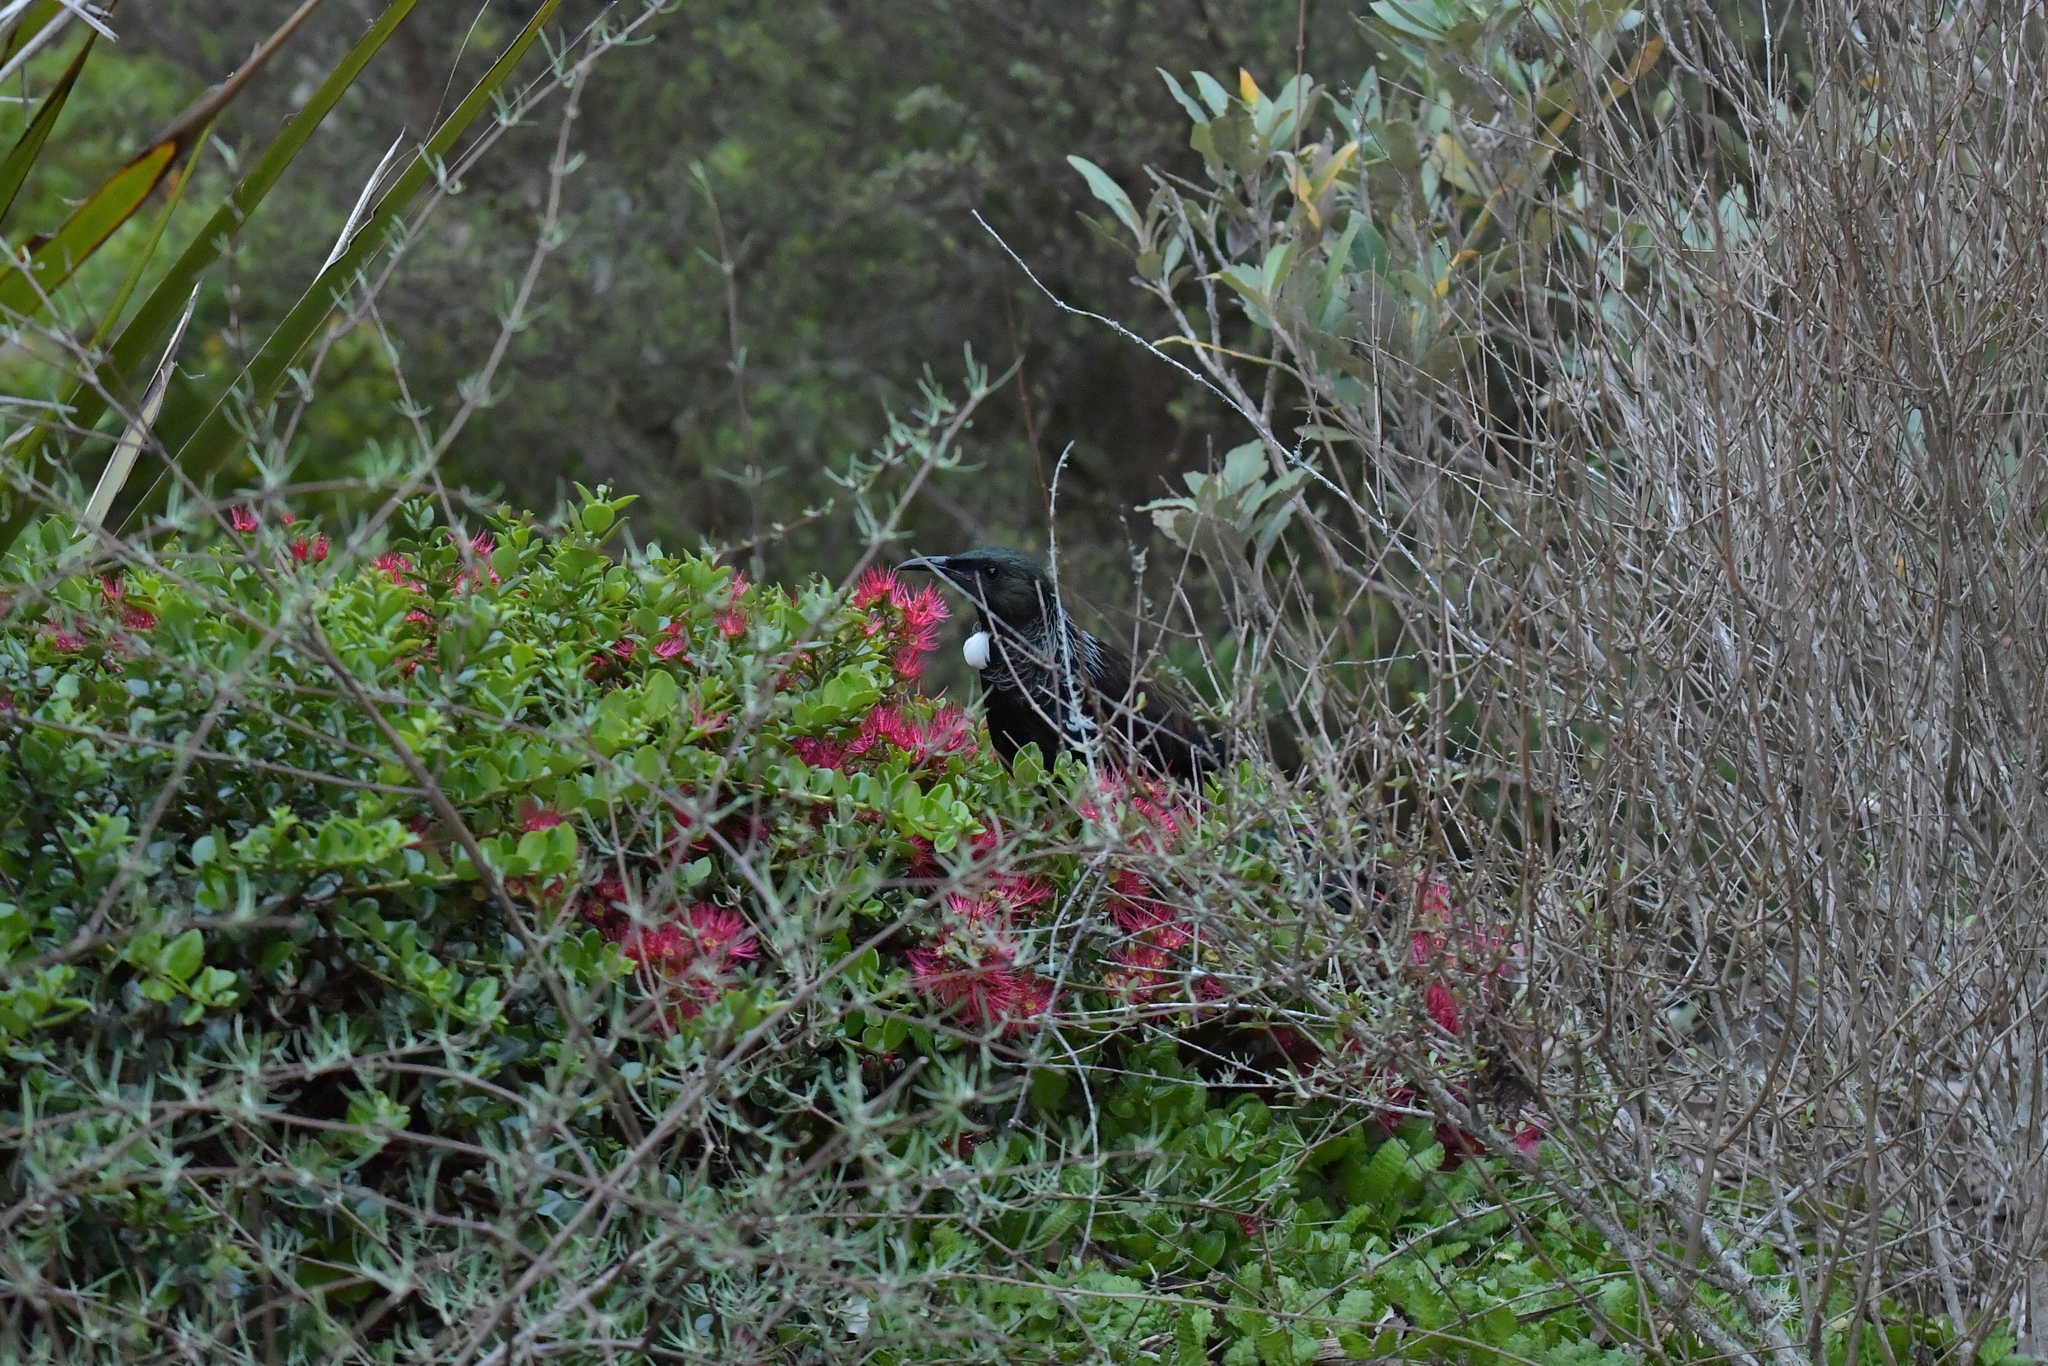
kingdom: Animalia
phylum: Chordata
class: Aves
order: Passeriformes
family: Meliphagidae
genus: Prosthemadera
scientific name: Prosthemadera novaeseelandiae
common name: Tui
